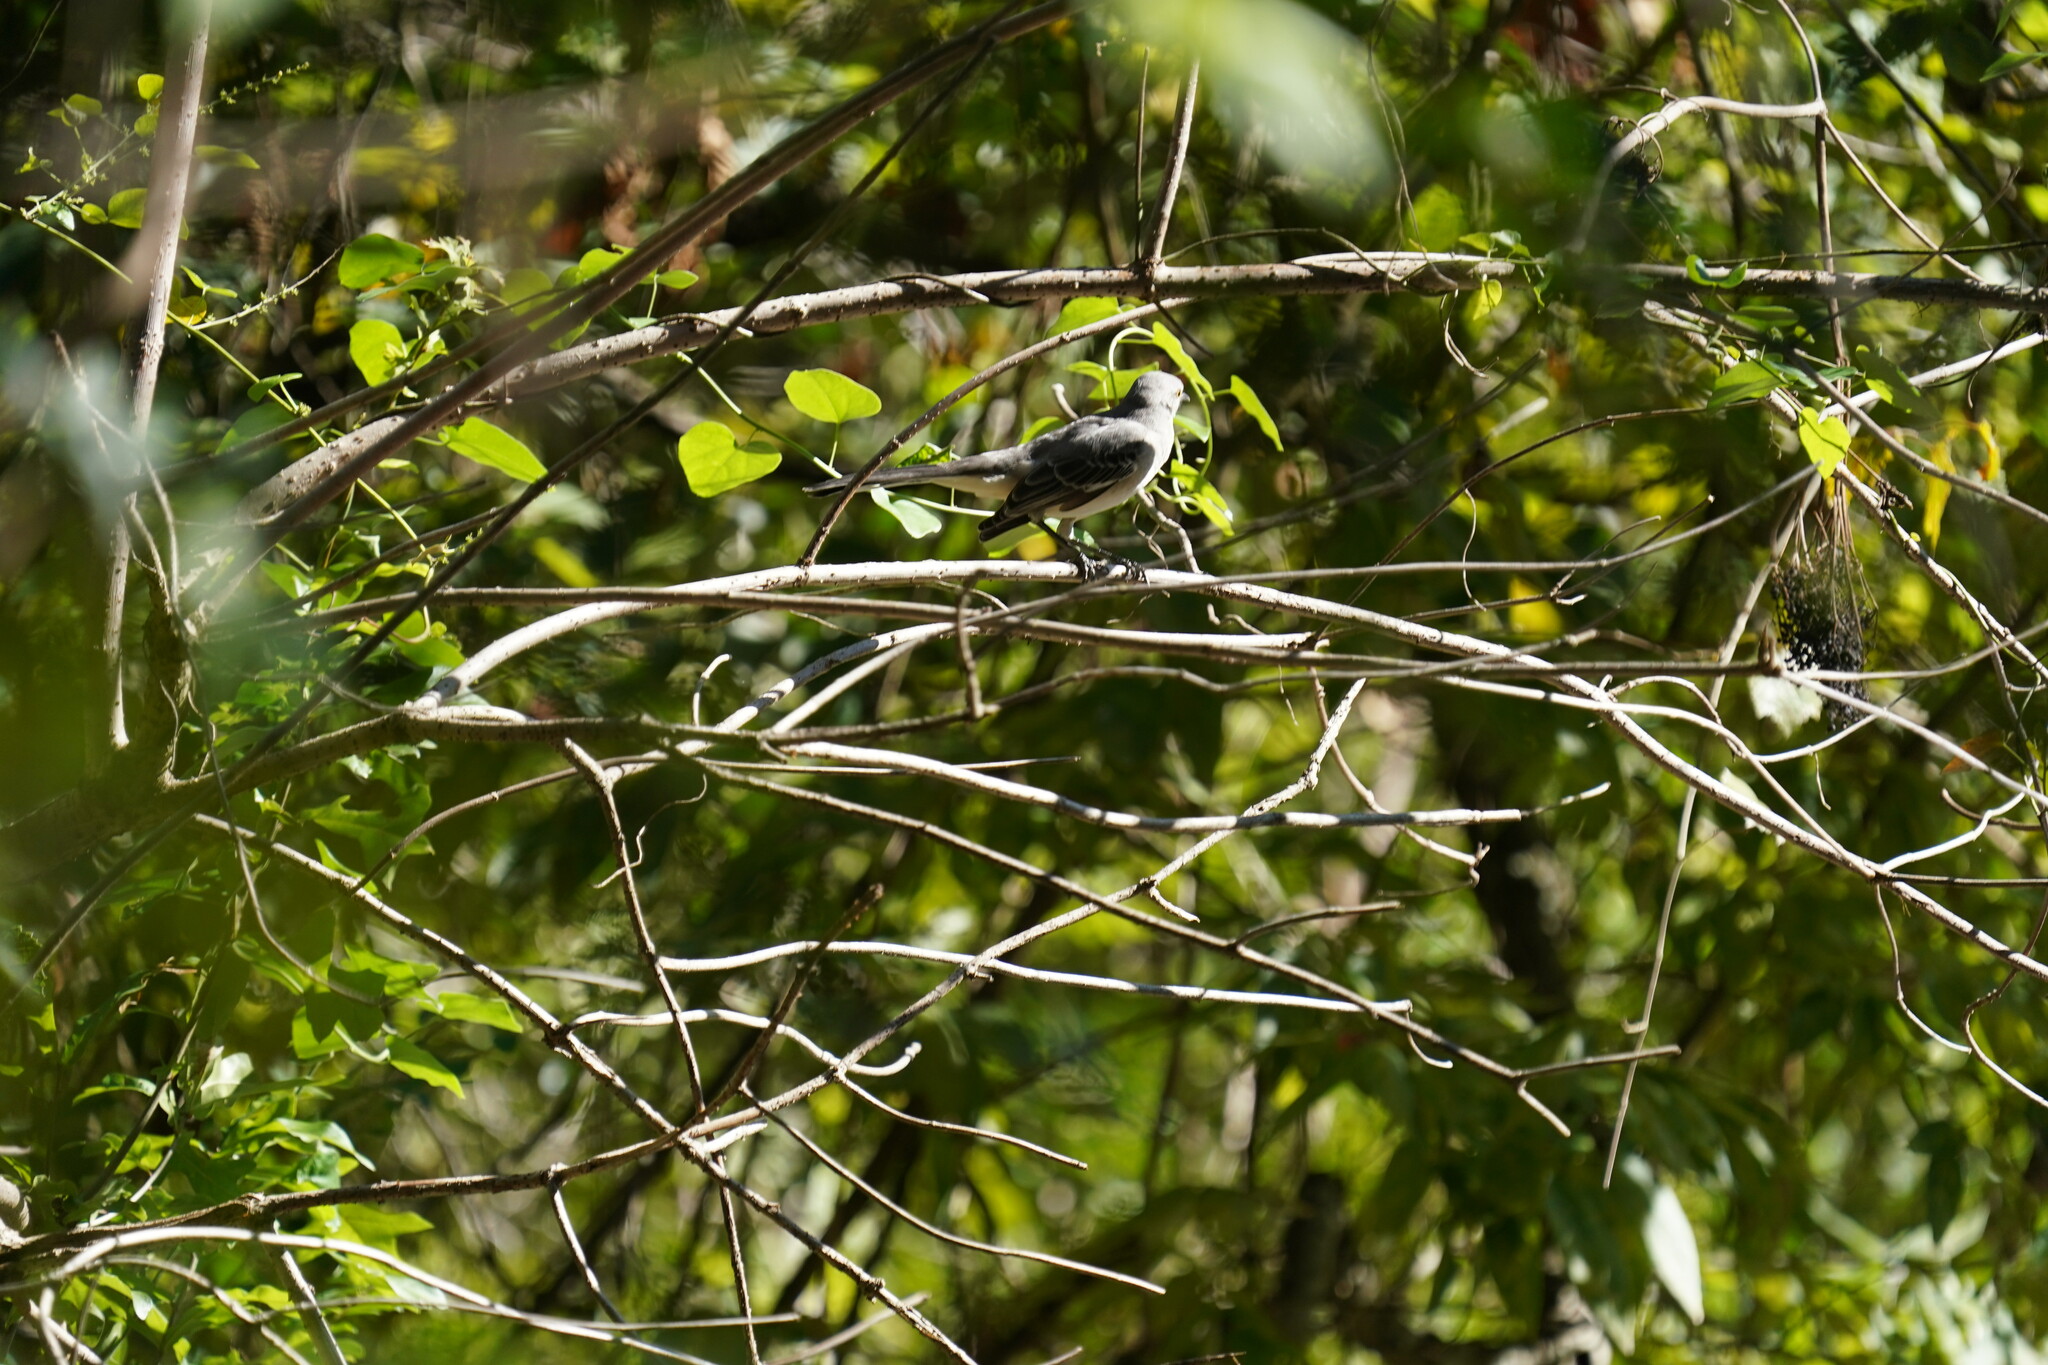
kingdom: Animalia
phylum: Chordata
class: Aves
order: Passeriformes
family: Mimidae
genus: Mimus
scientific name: Mimus polyglottos
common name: Northern mockingbird
